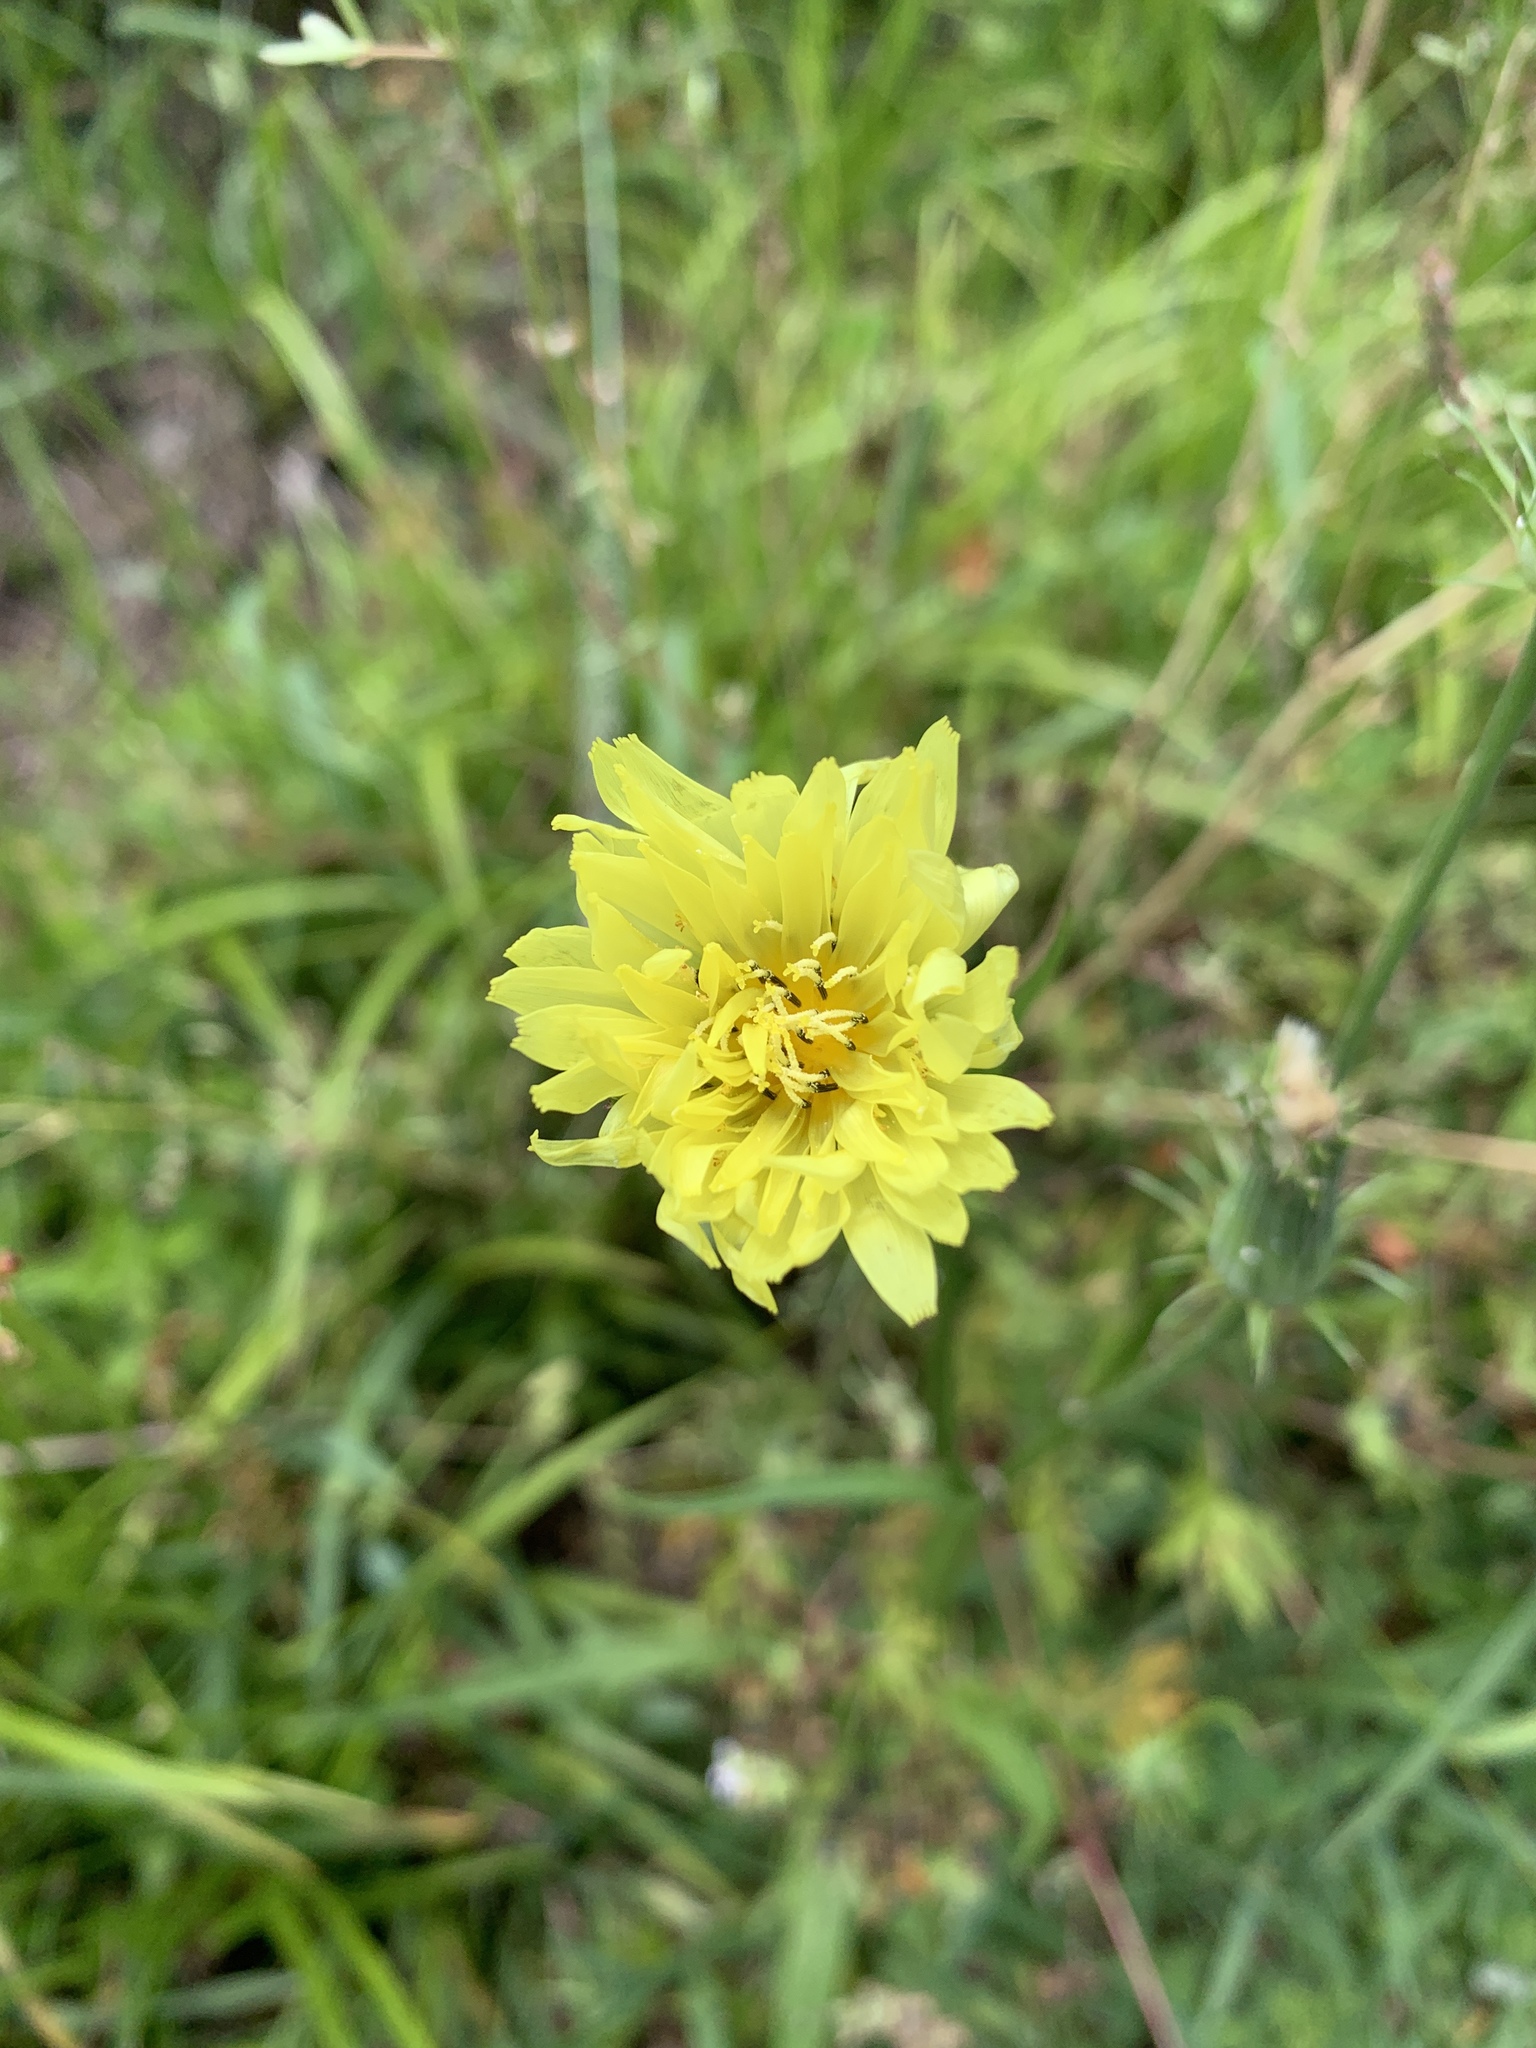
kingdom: Plantae
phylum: Tracheophyta
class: Magnoliopsida
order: Asterales
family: Asteraceae
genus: Pyrrhopappus
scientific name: Pyrrhopappus carolinianus
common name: Carolina desert-chicory
